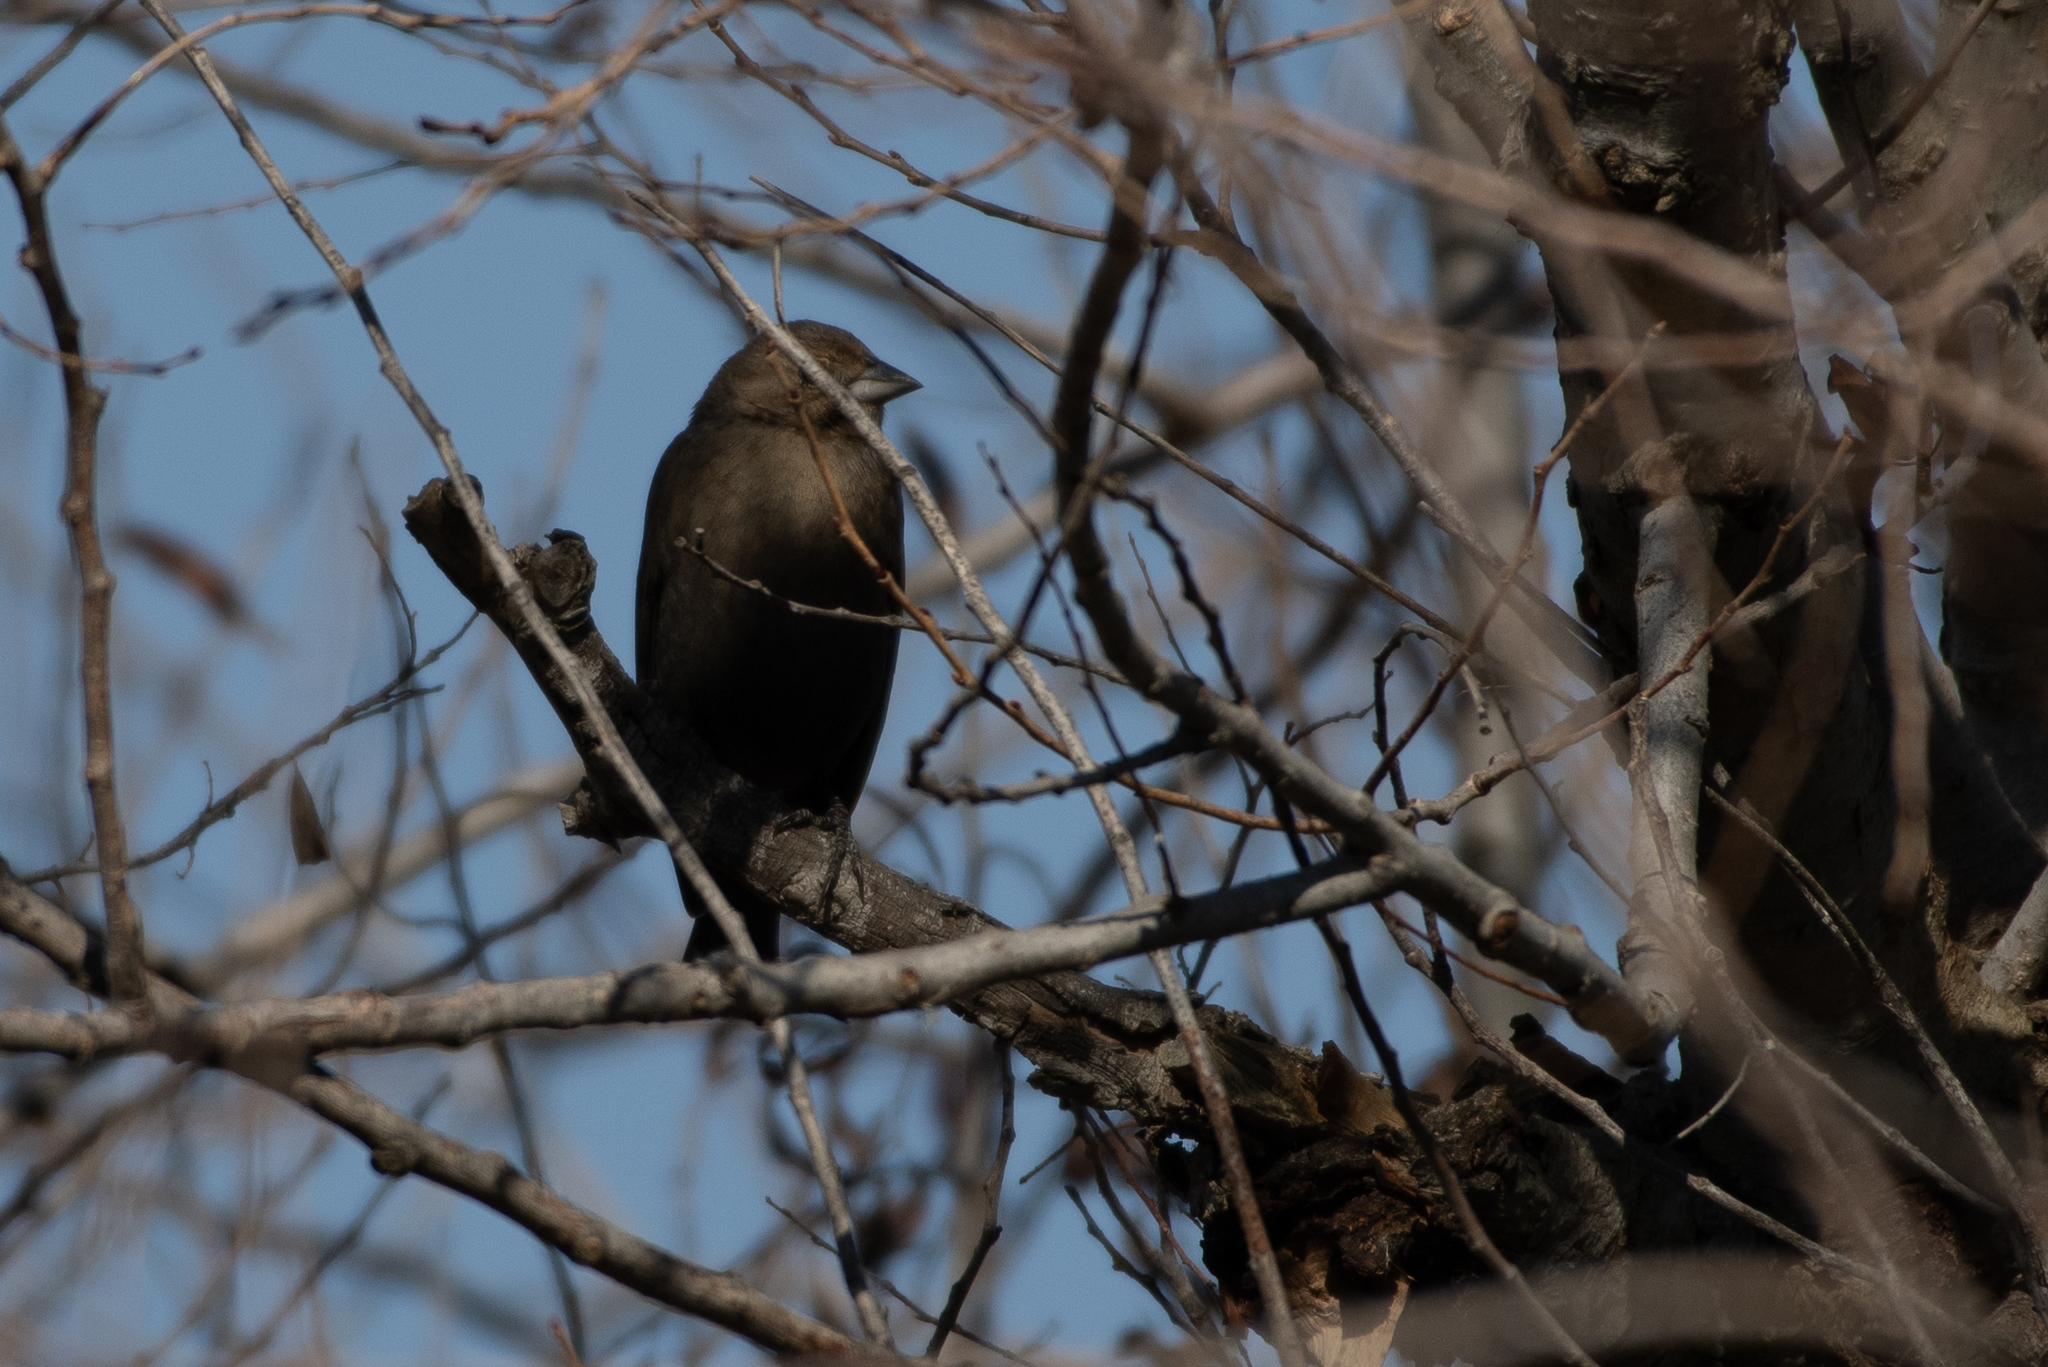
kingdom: Animalia
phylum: Chordata
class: Aves
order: Passeriformes
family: Icteridae
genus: Molothrus
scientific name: Molothrus ater
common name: Brown-headed cowbird
